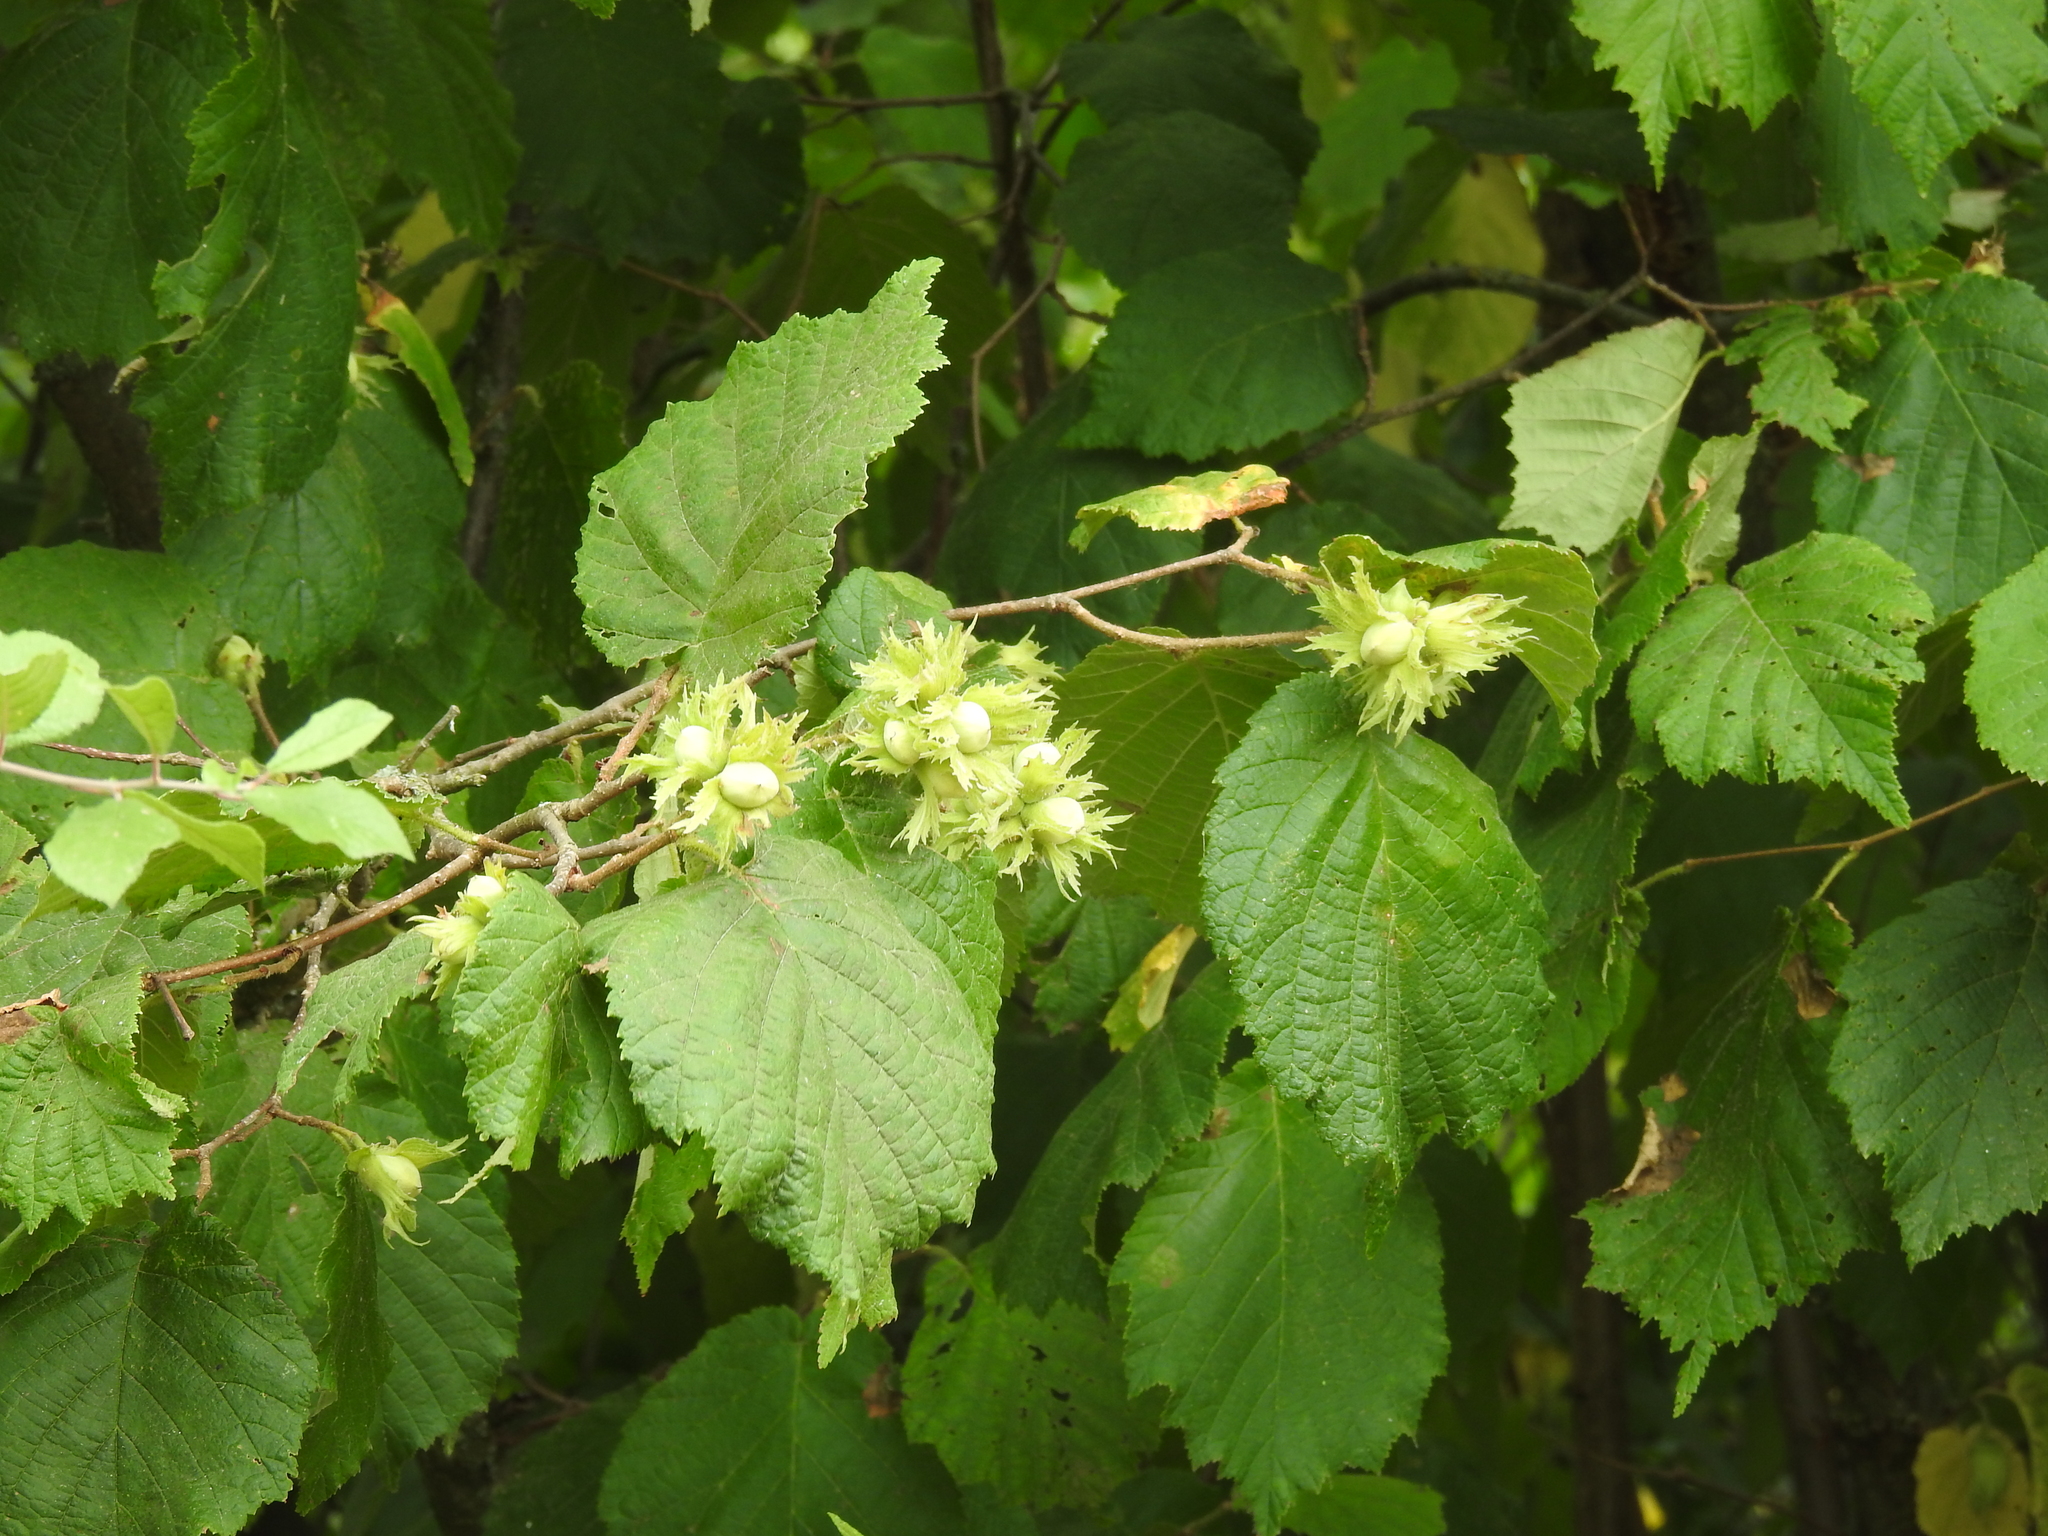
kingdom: Plantae
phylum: Tracheophyta
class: Magnoliopsida
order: Fagales
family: Betulaceae
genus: Corylus
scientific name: Corylus avellana
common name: European hazel
